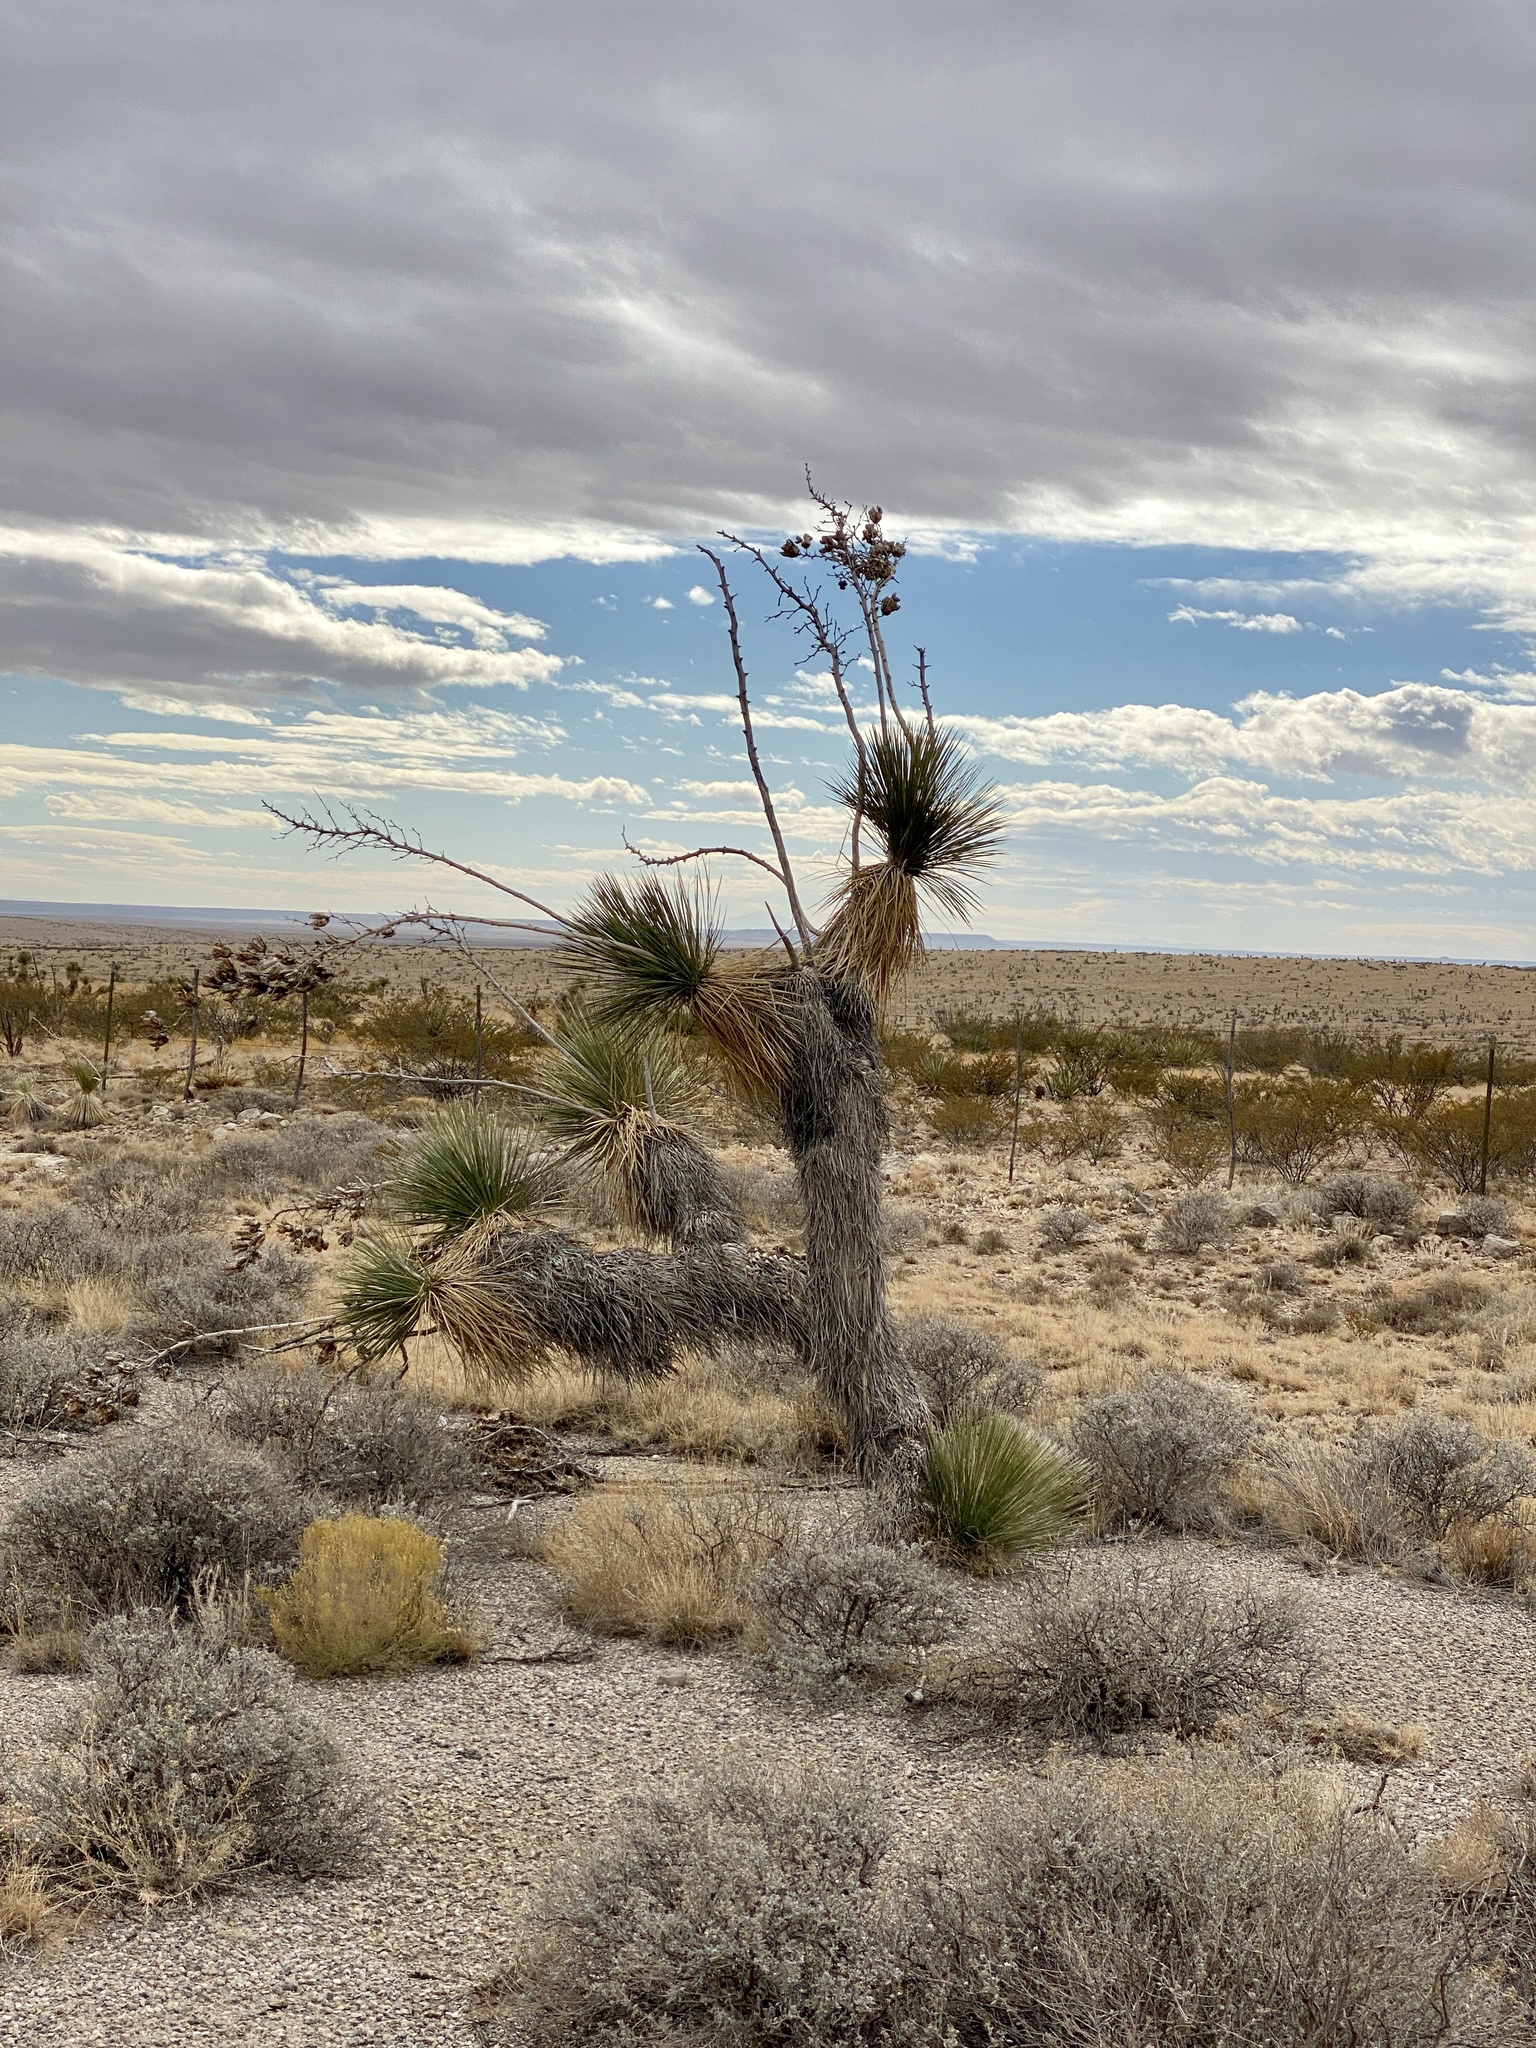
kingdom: Plantae
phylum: Tracheophyta
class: Liliopsida
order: Asparagales
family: Asparagaceae
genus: Yucca
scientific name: Yucca elata
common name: Palmella
